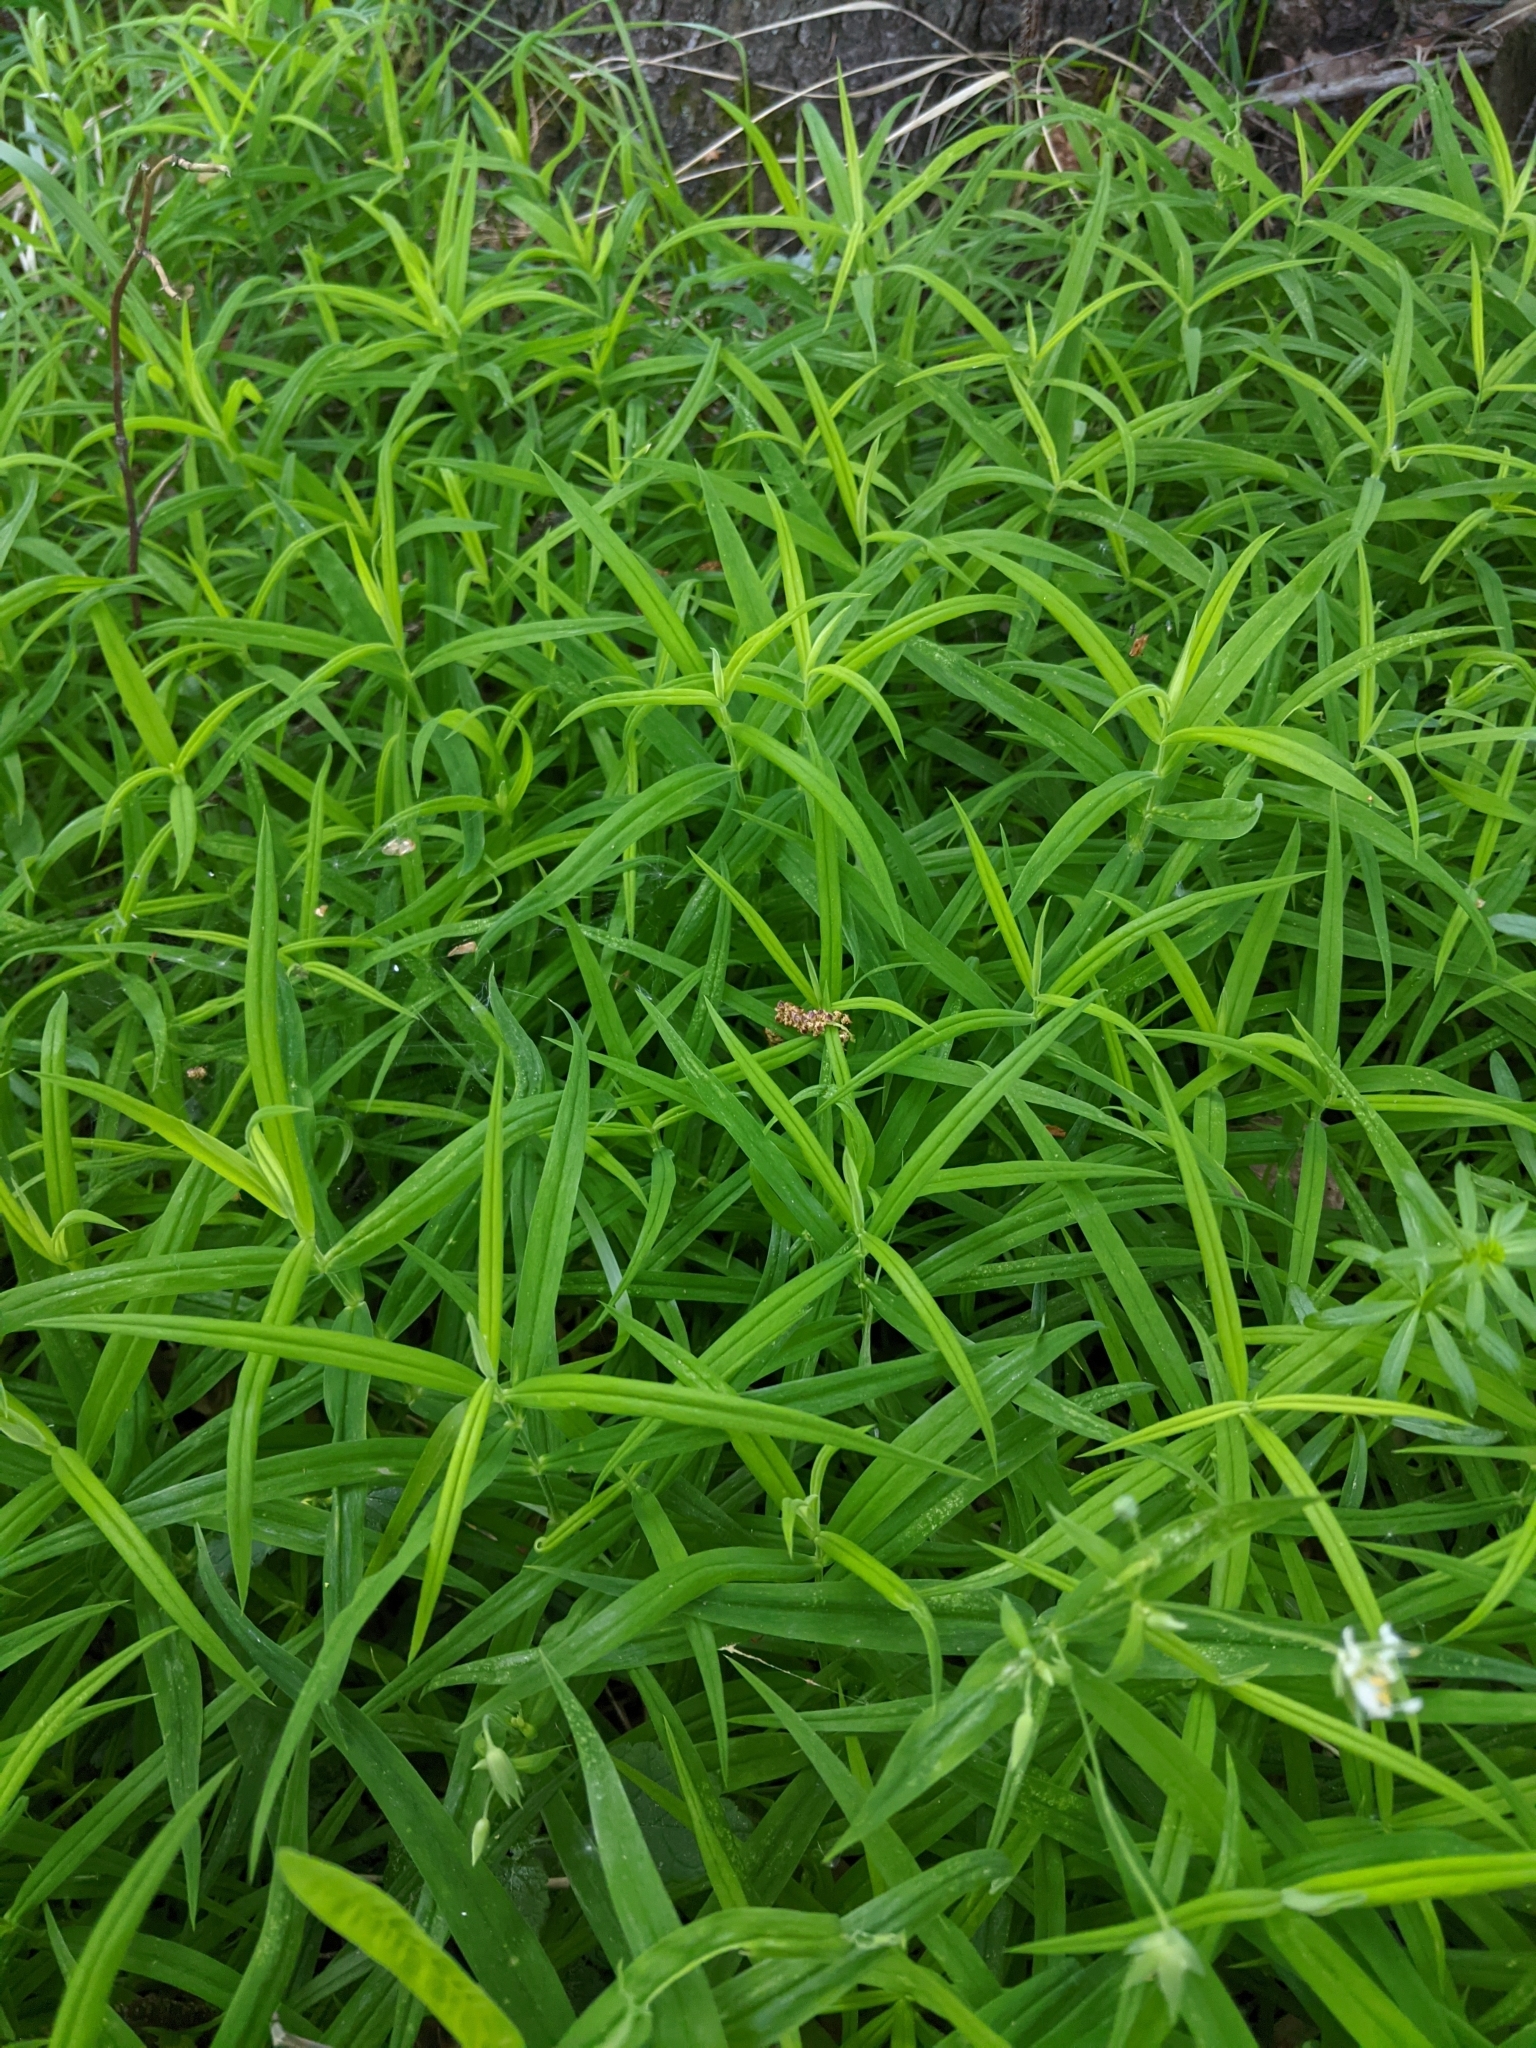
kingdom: Plantae
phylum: Tracheophyta
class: Magnoliopsida
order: Caryophyllales
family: Caryophyllaceae
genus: Rabelera
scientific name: Rabelera holostea
